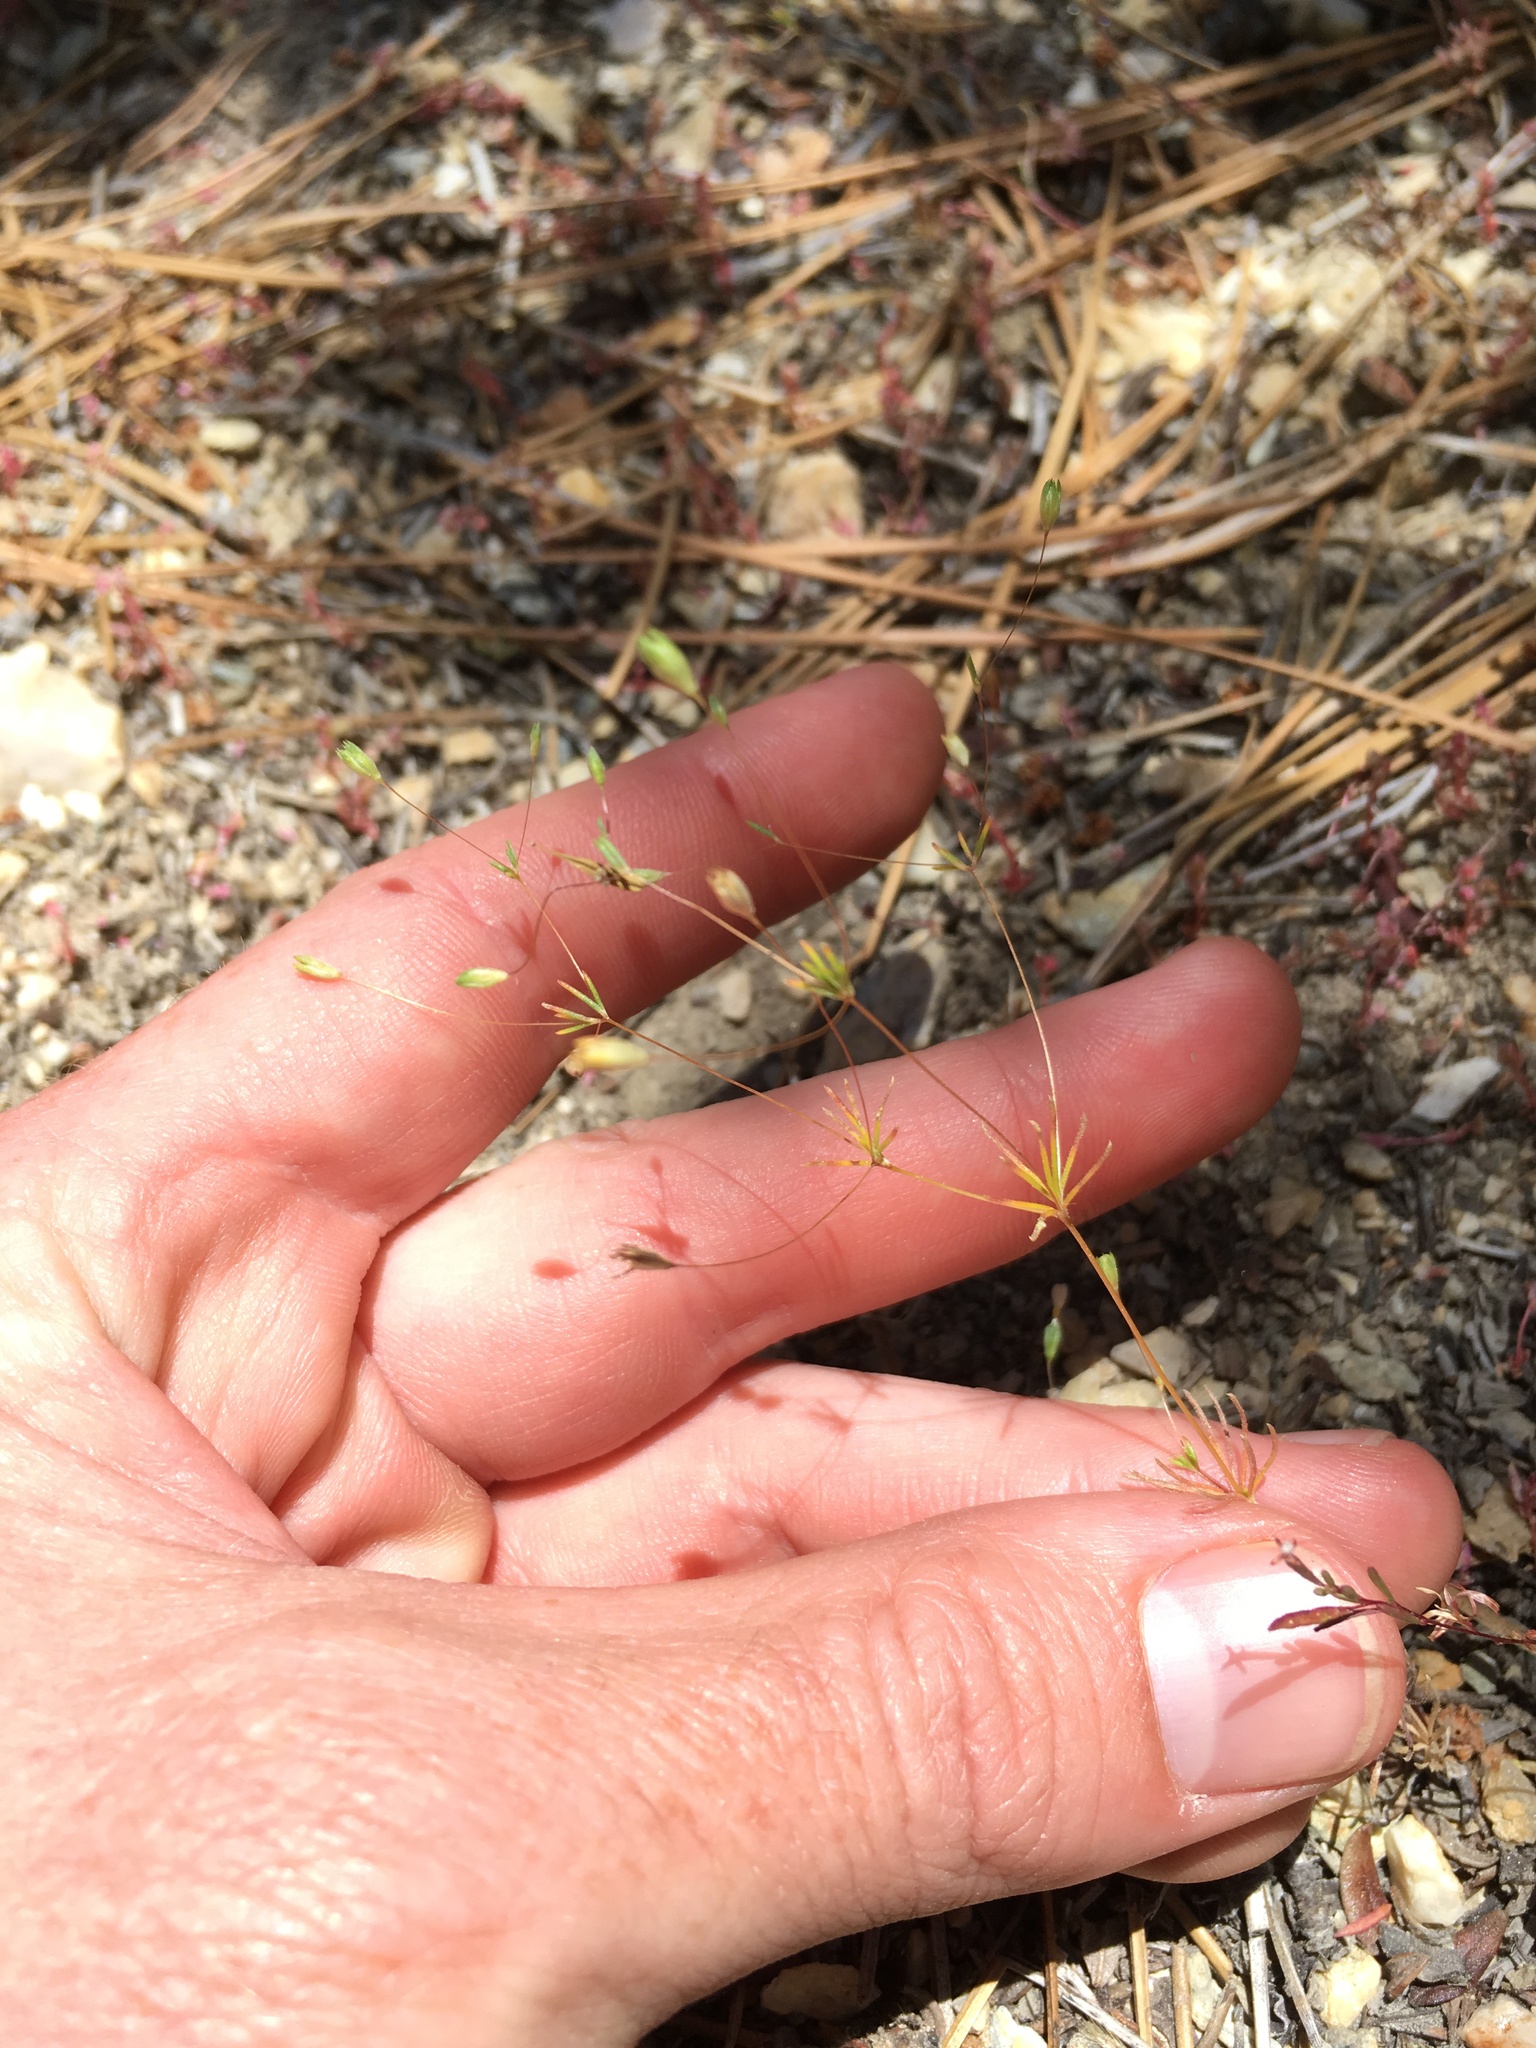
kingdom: Plantae
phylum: Tracheophyta
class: Magnoliopsida
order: Ericales
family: Polemoniaceae
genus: Leptosiphon
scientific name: Leptosiphon septentrionalis
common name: Northern linanthus
